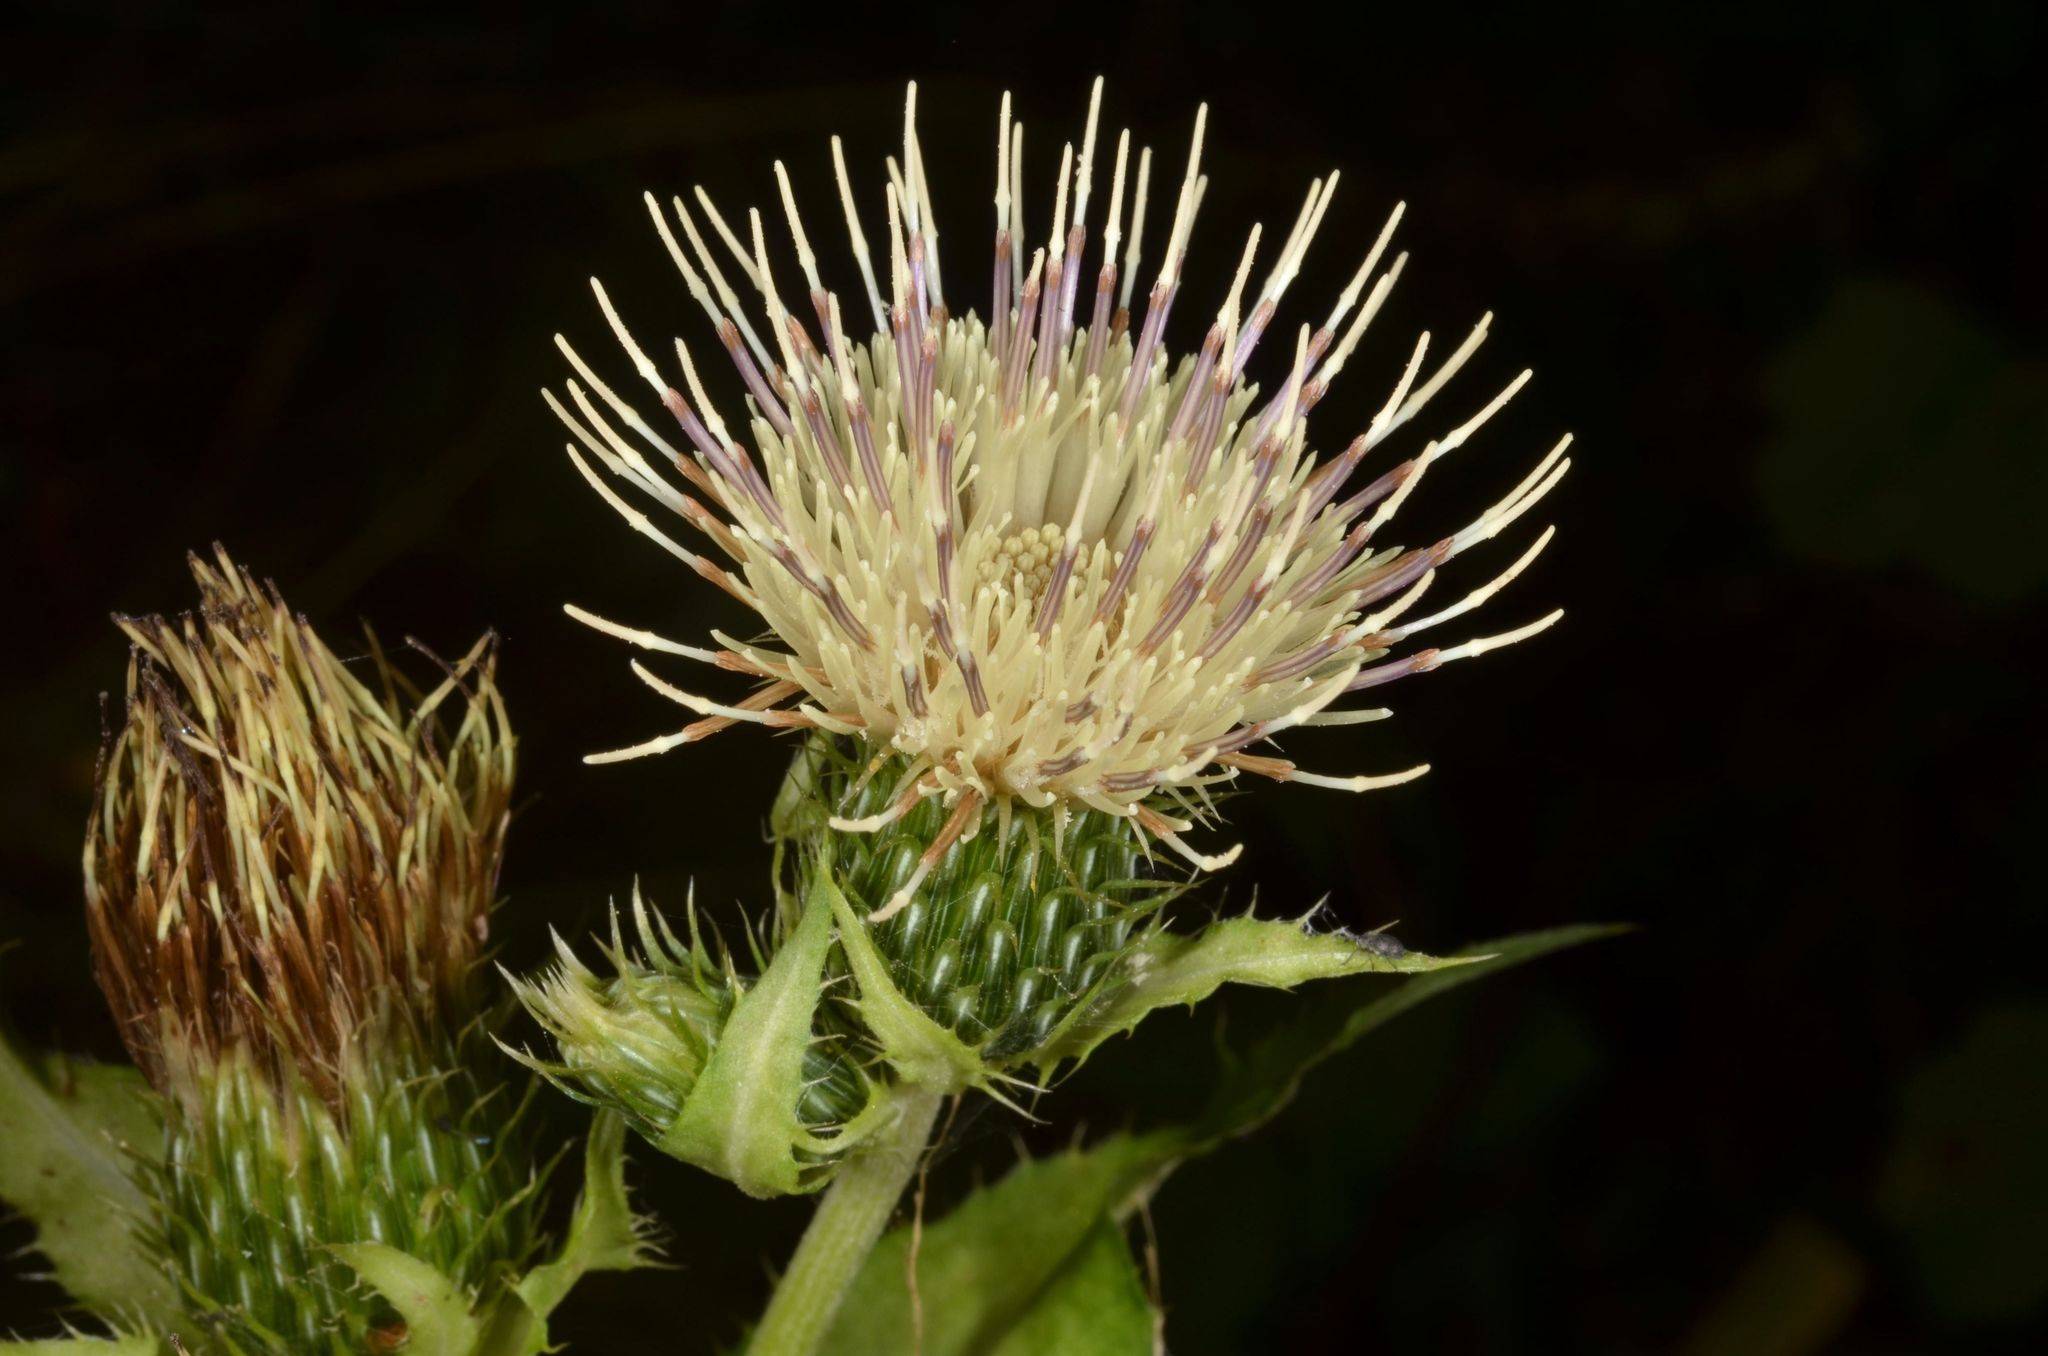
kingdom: Plantae
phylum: Tracheophyta
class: Magnoliopsida
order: Asterales
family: Asteraceae
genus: Cirsium
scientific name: Cirsium oleraceum
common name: Cabbage thistle
